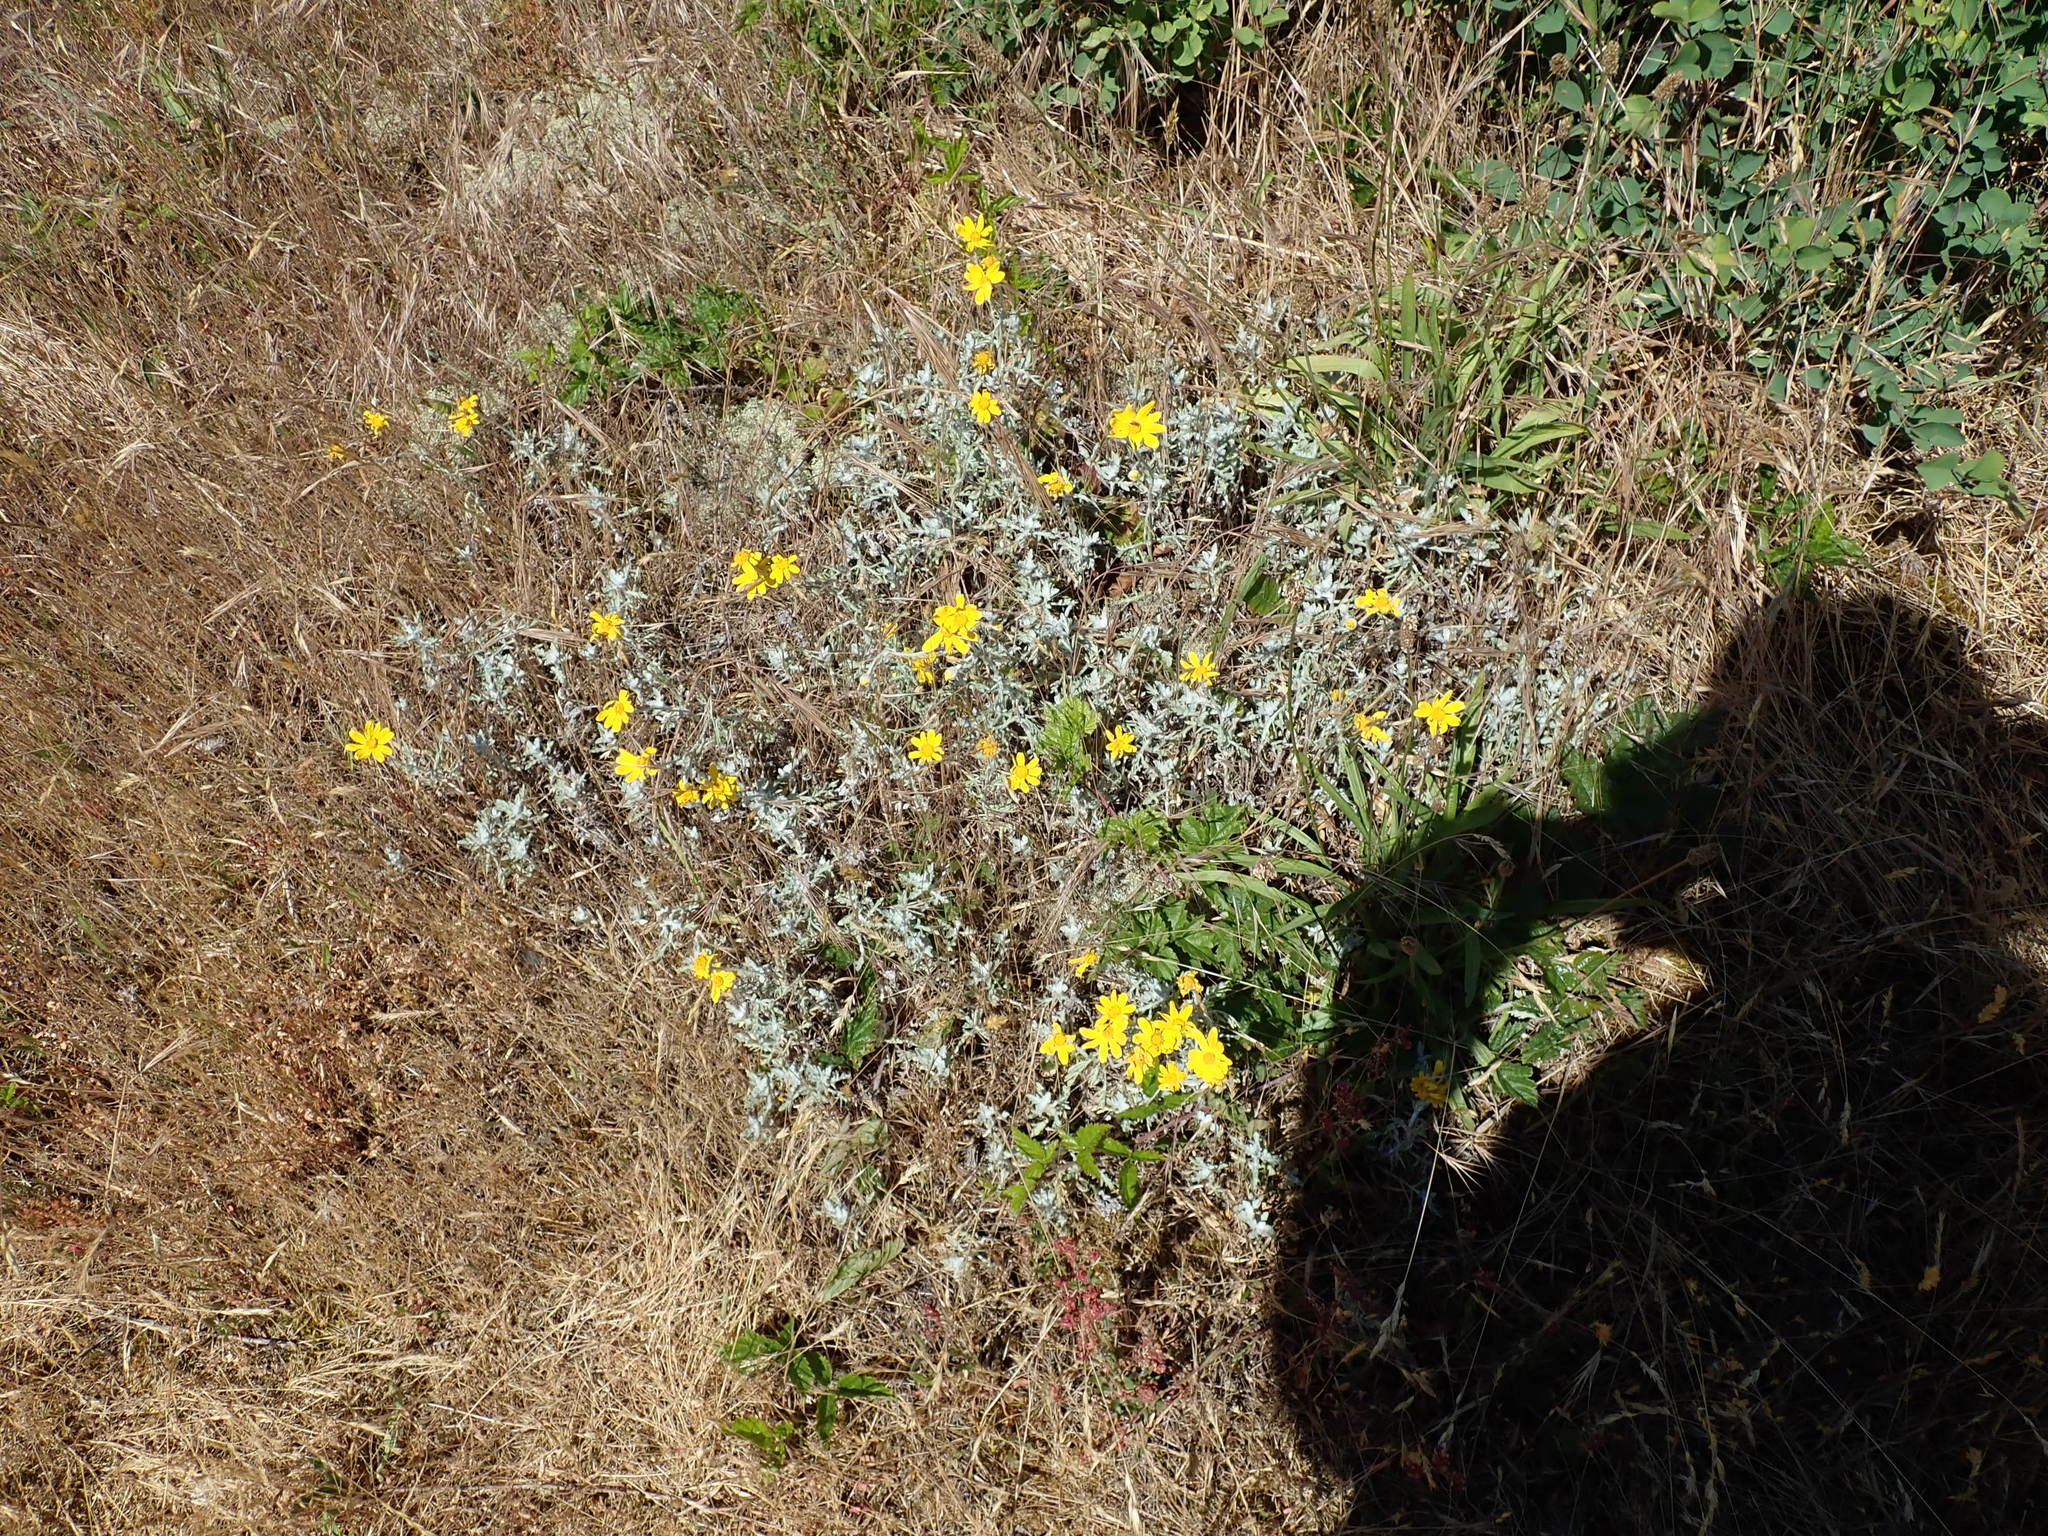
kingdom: Plantae
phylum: Tracheophyta
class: Magnoliopsida
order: Asterales
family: Asteraceae
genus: Eriophyllum
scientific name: Eriophyllum lanatum
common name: Common woolly-sunflower
